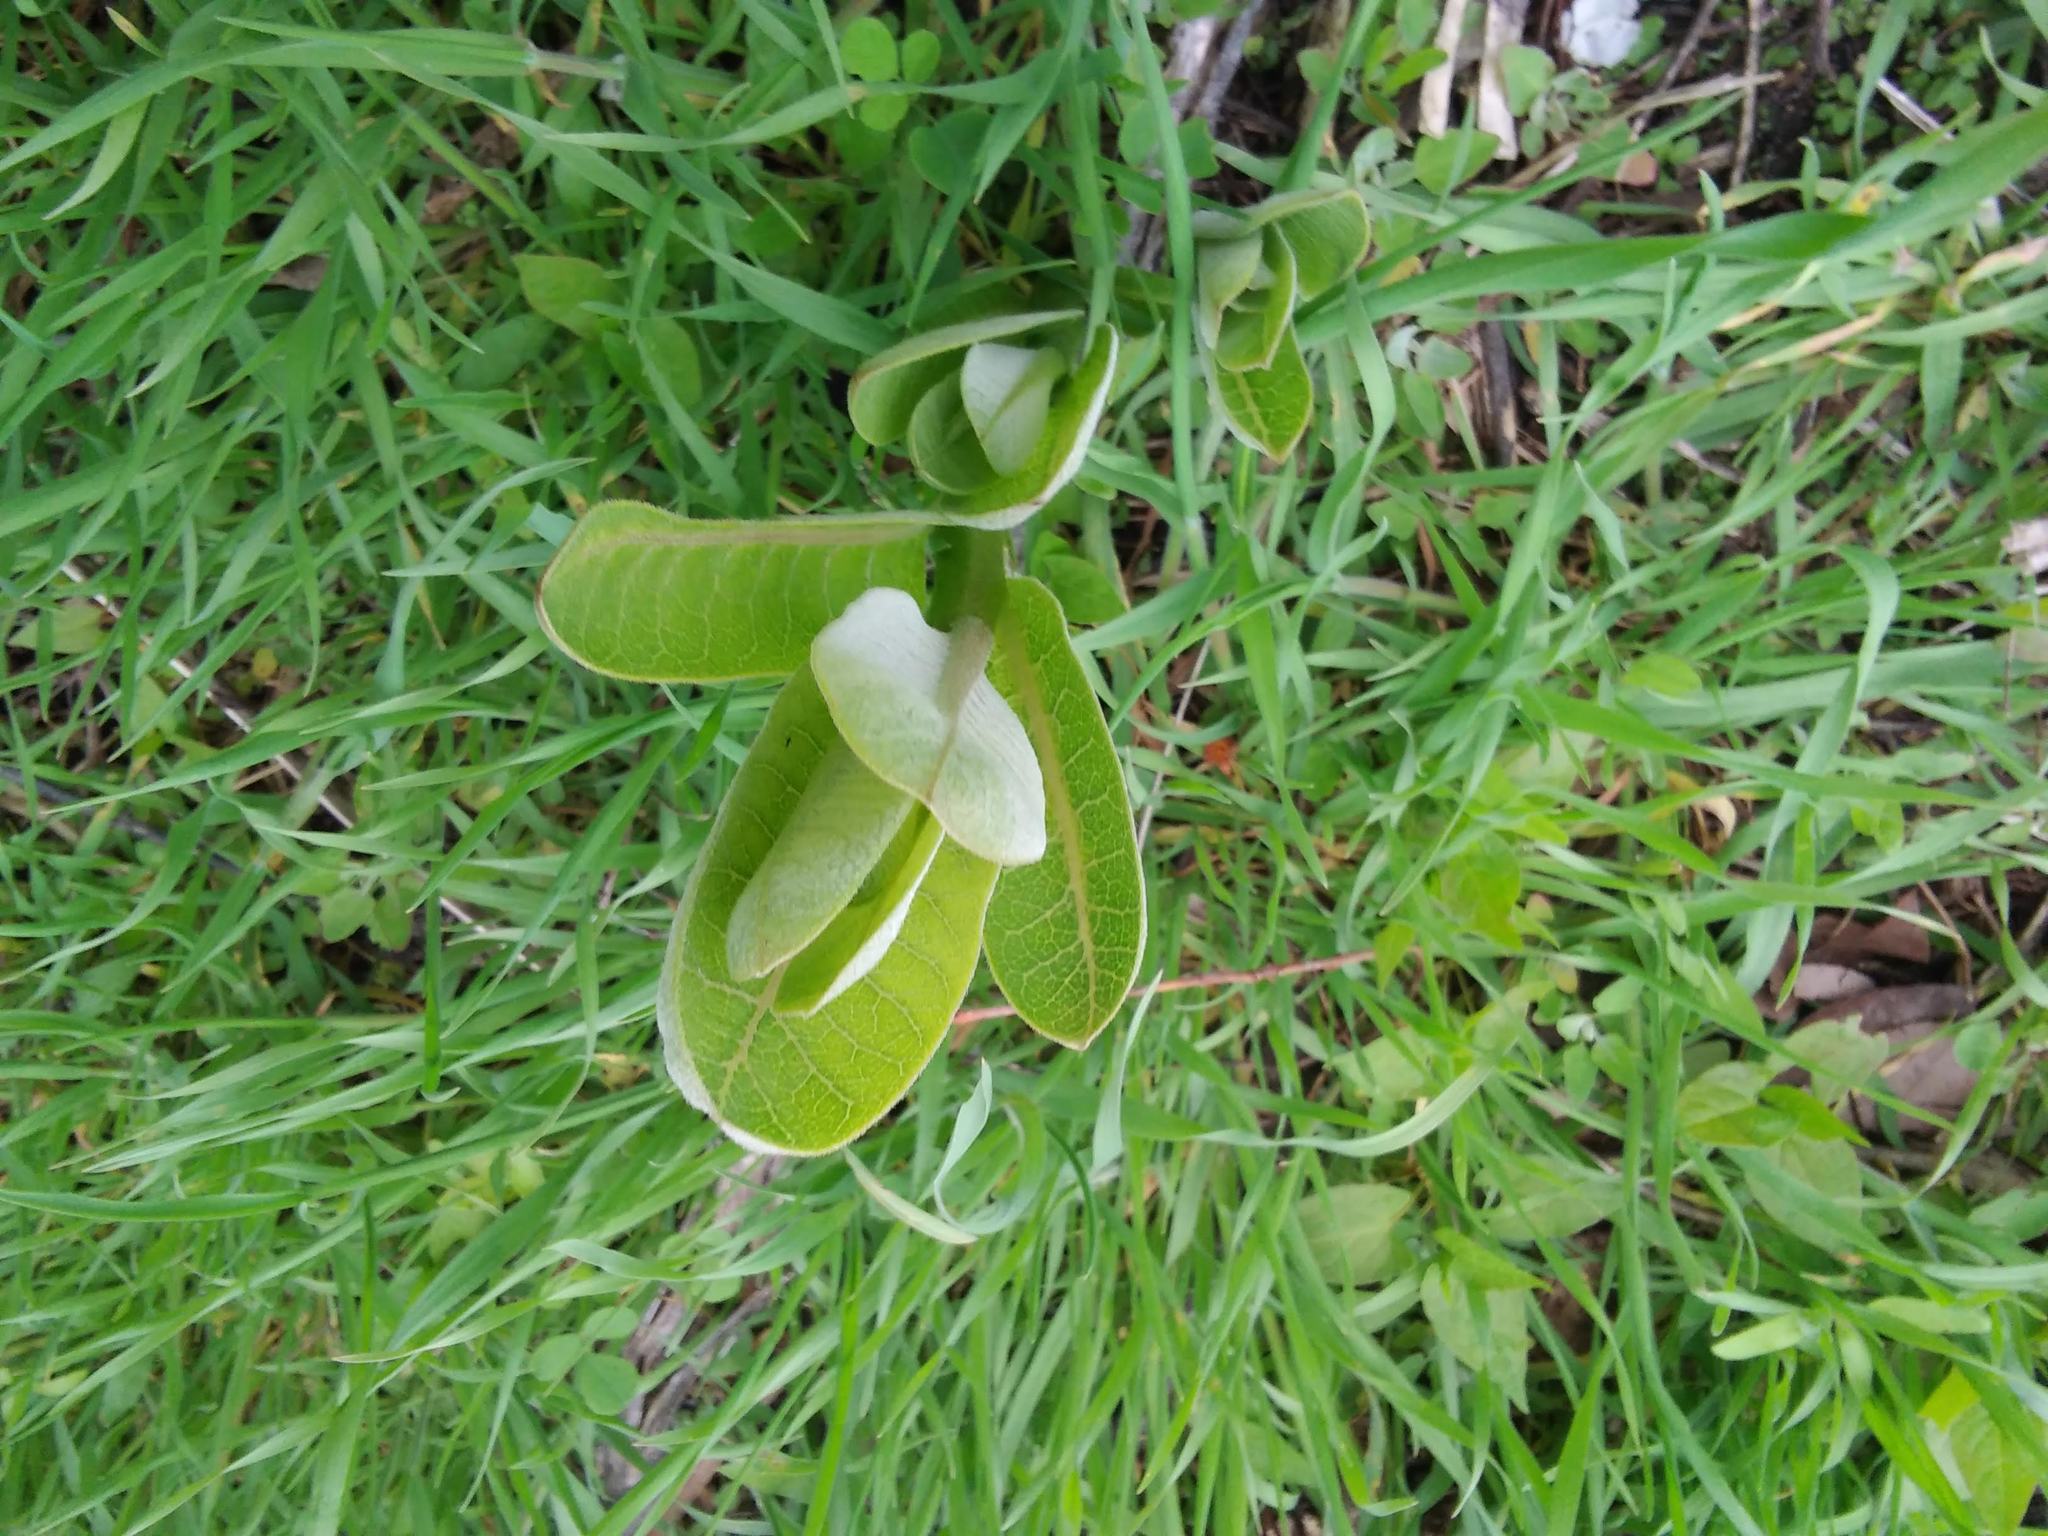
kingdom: Plantae
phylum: Tracheophyta
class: Magnoliopsida
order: Gentianales
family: Apocynaceae
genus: Asclepias
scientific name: Asclepias syriaca
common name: Common milkweed
